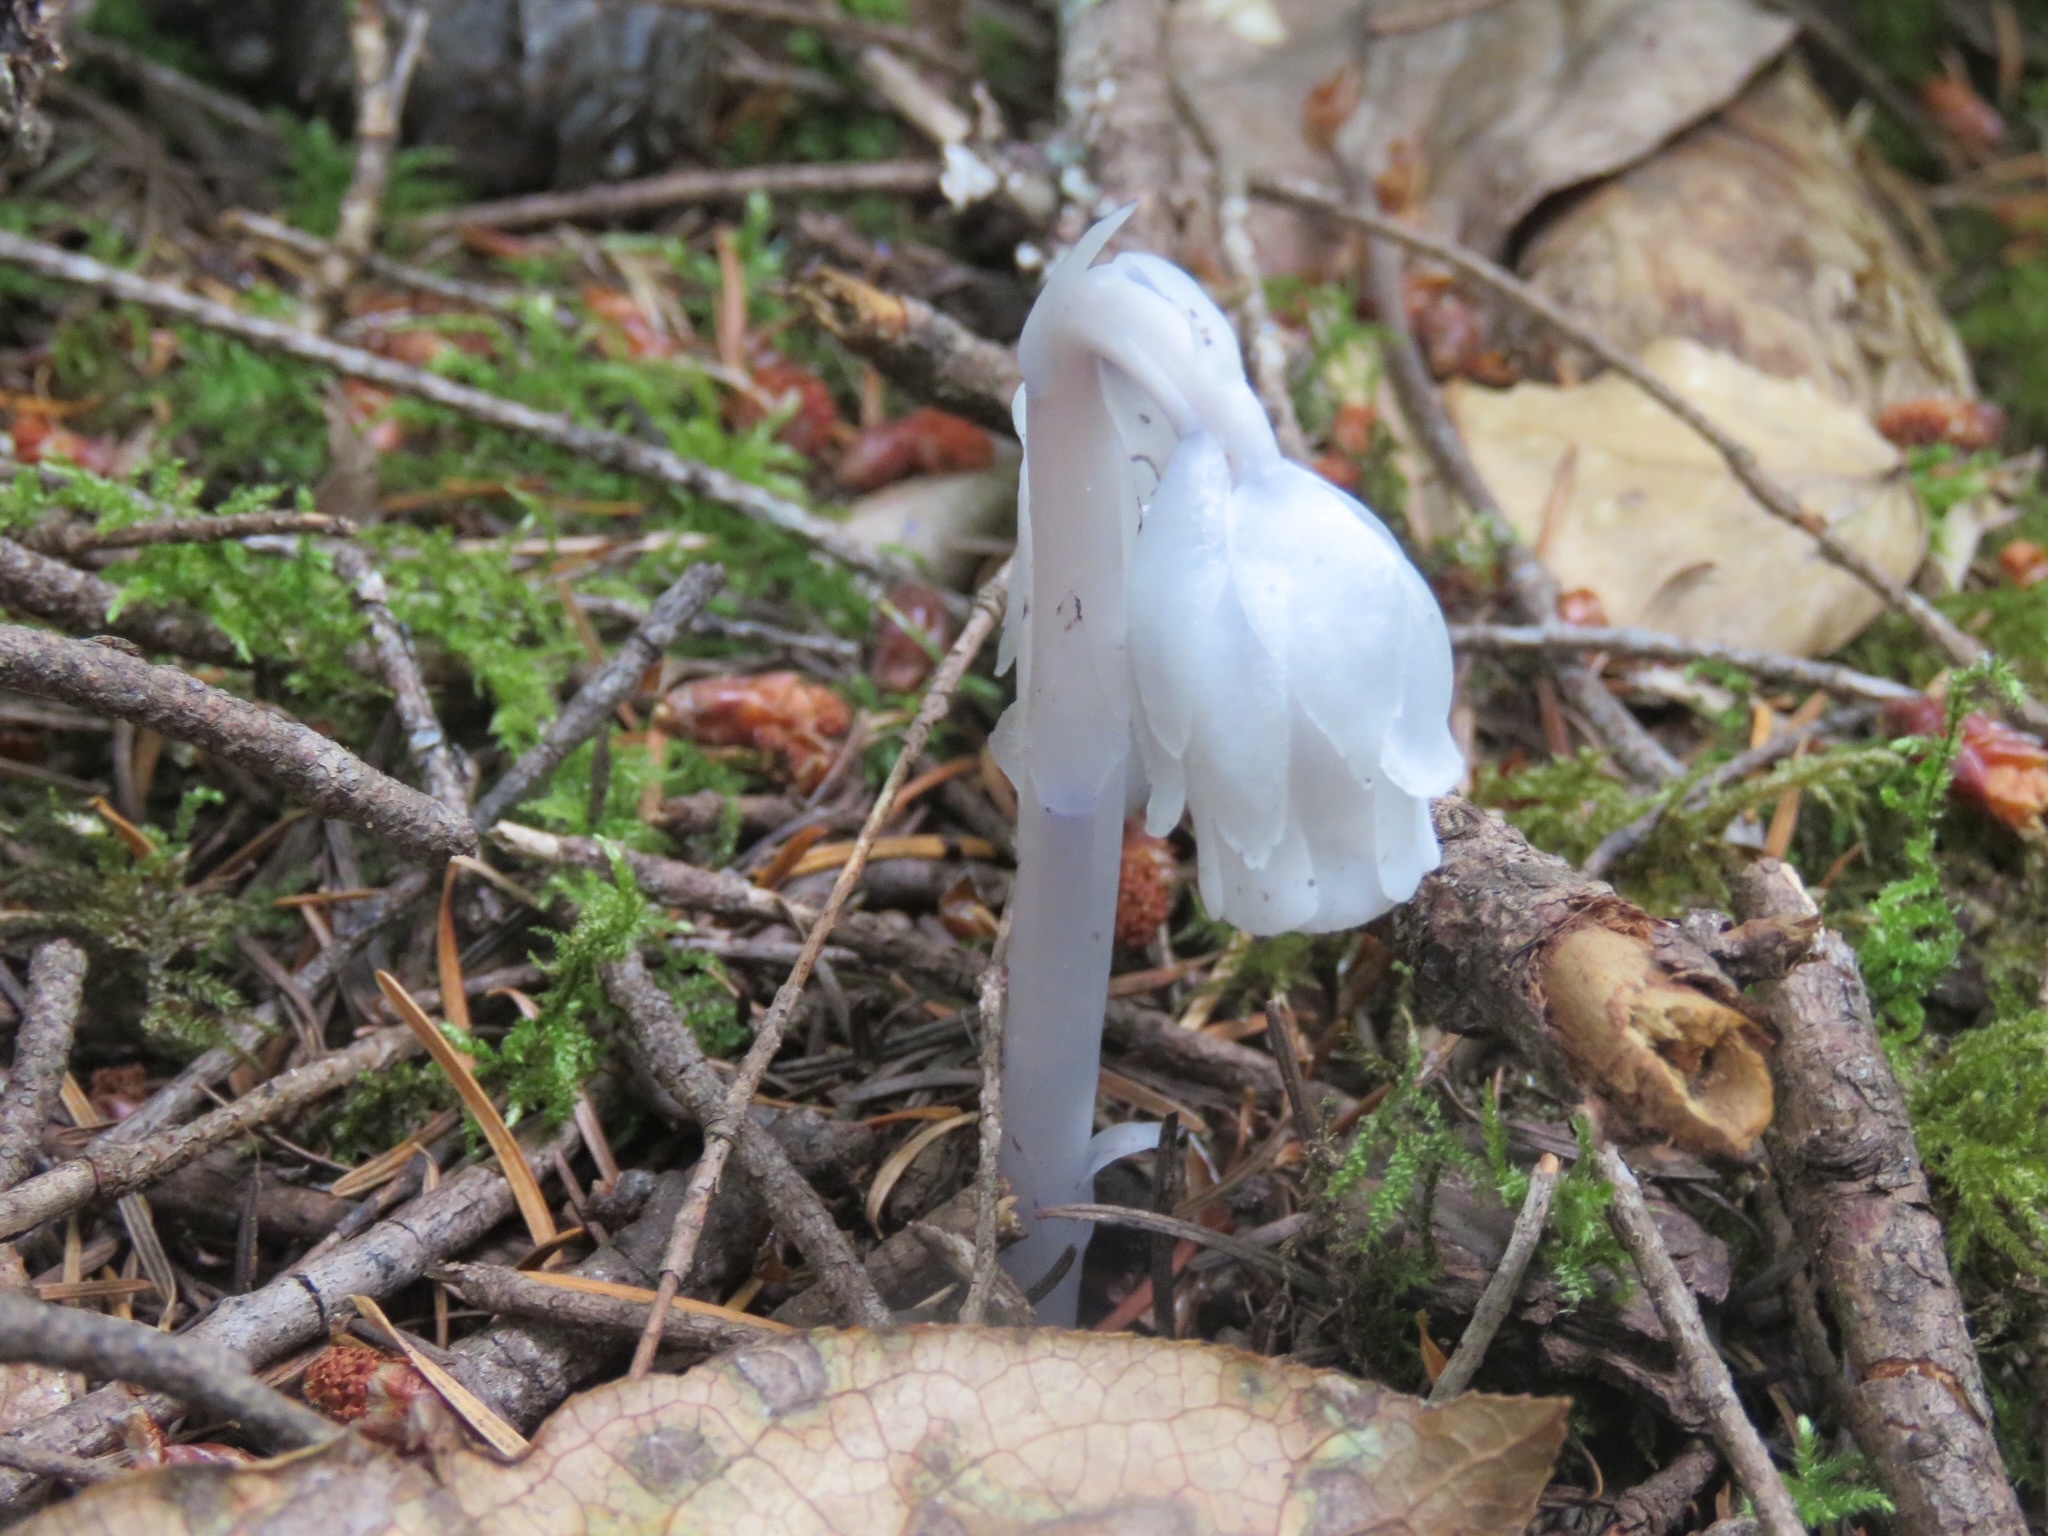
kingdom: Plantae
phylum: Tracheophyta
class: Magnoliopsida
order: Ericales
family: Ericaceae
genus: Monotropa
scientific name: Monotropa uniflora
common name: Convulsion root
